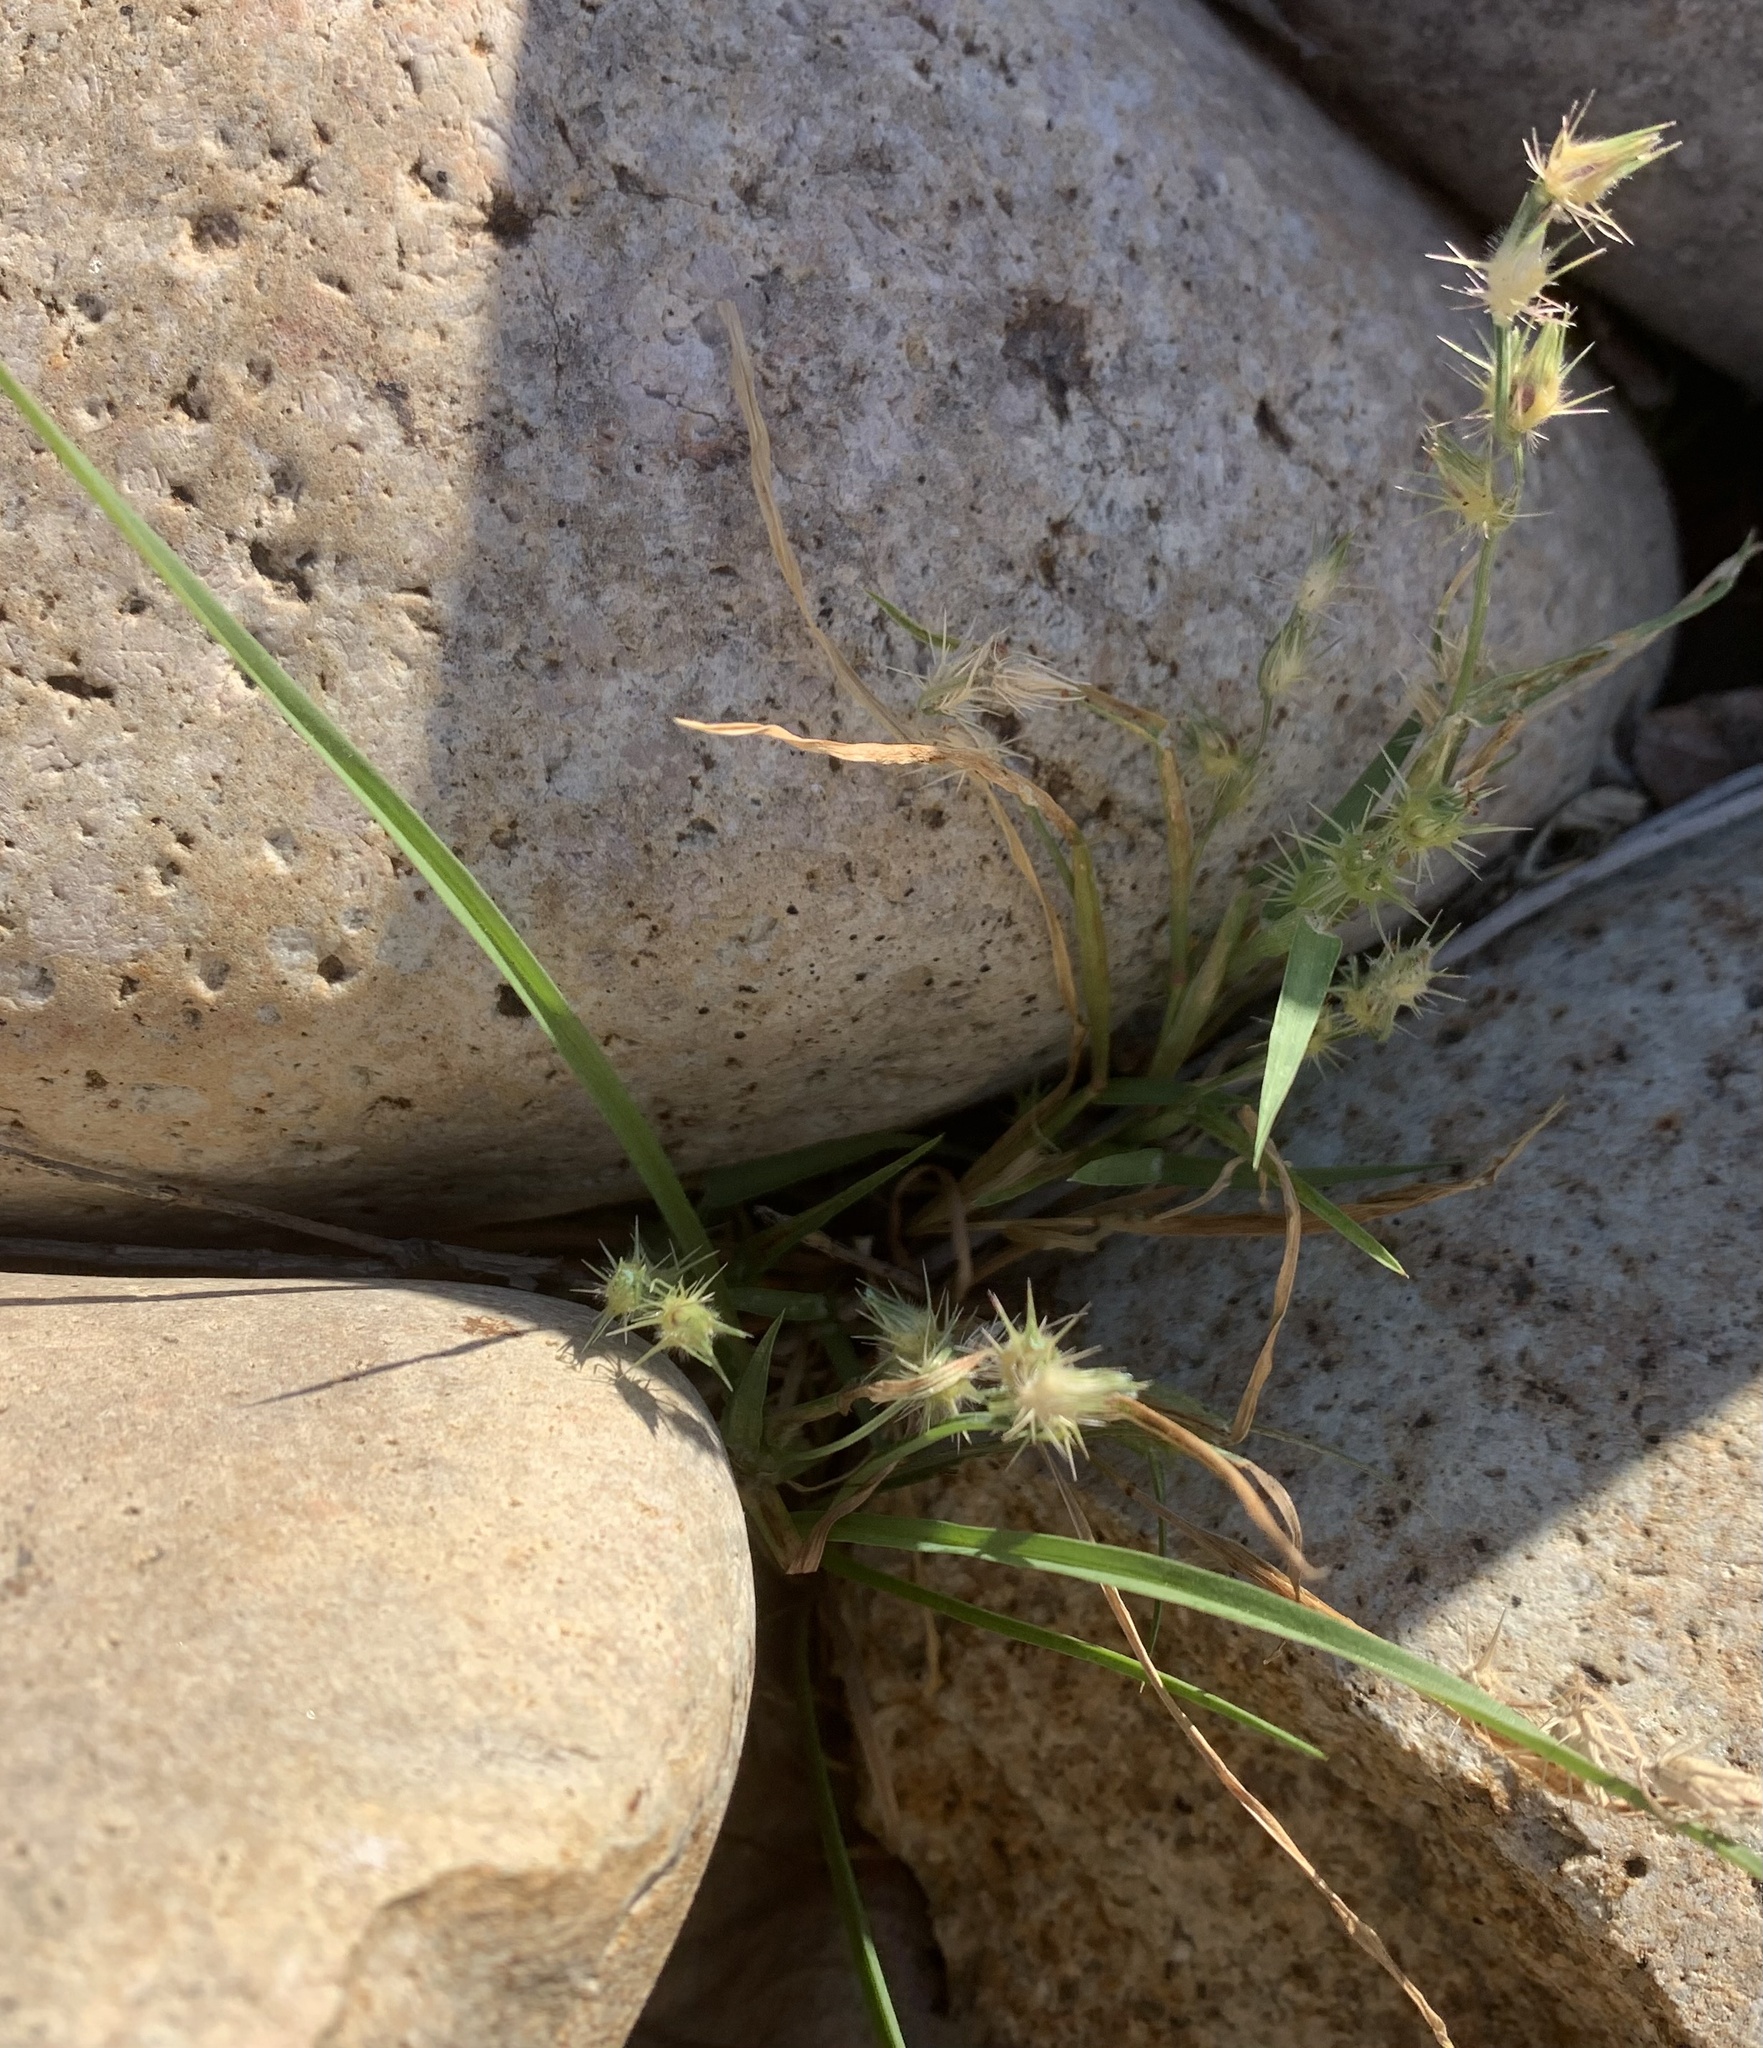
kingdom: Plantae
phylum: Tracheophyta
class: Liliopsida
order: Poales
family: Poaceae
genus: Cenchrus
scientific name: Cenchrus longispinus
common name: Mat sandbur
